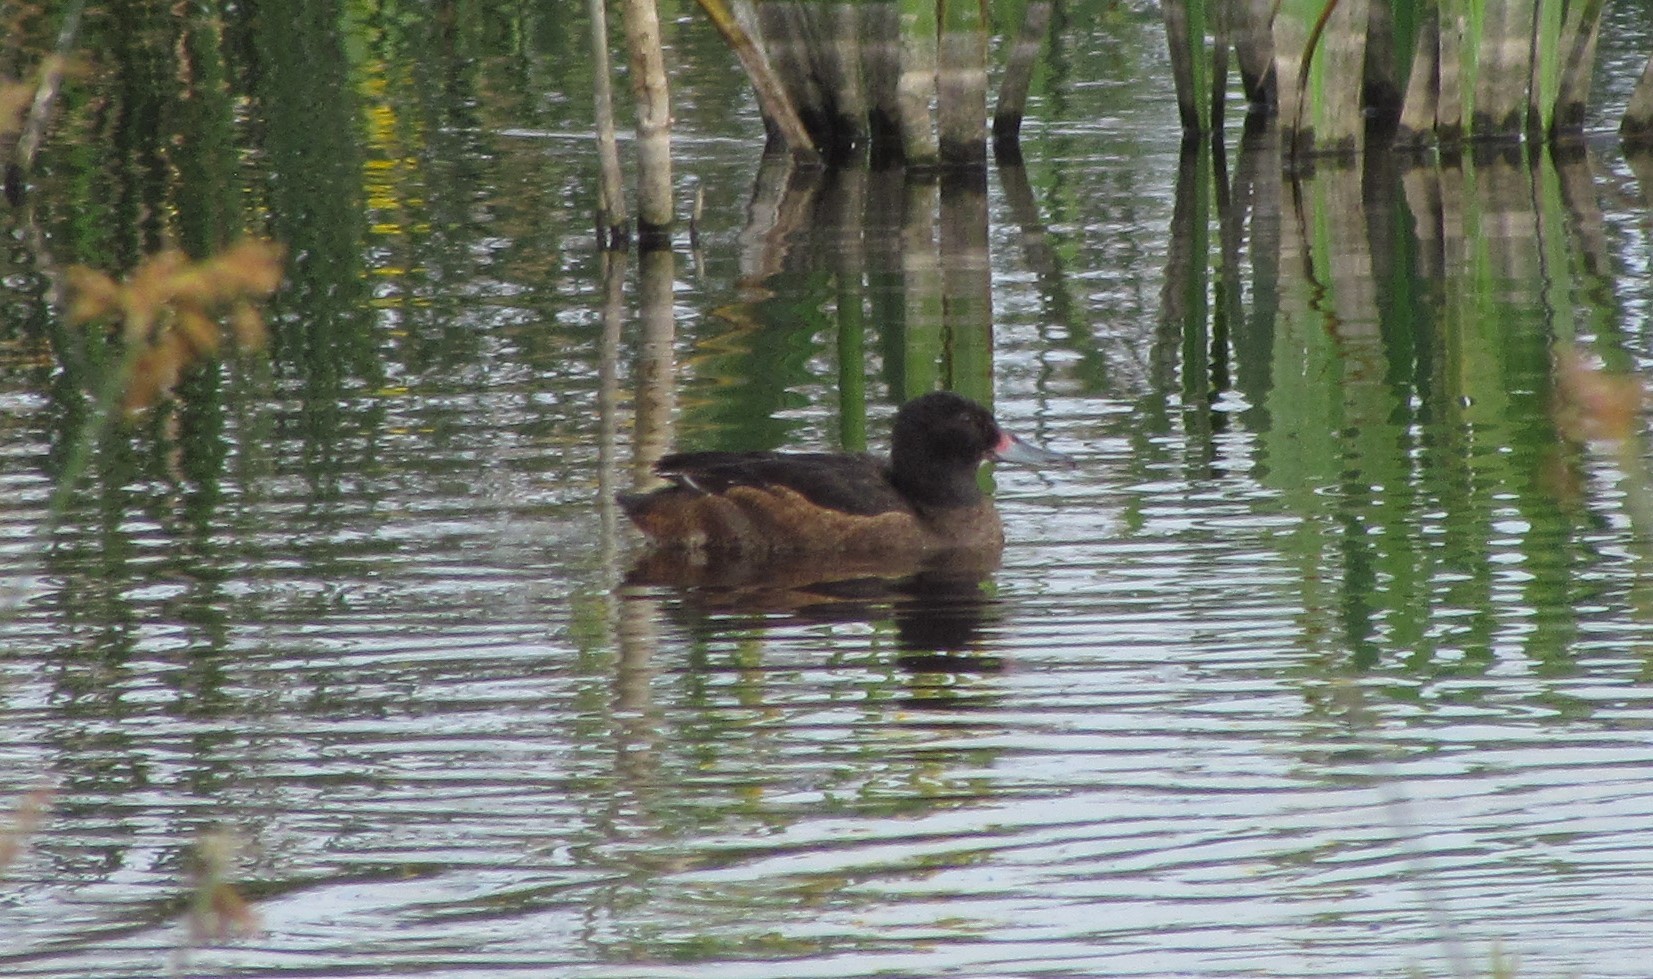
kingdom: Animalia
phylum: Chordata
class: Aves
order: Anseriformes
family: Anatidae
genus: Heteronetta
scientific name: Heteronetta atricapilla
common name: Black-headed duck
